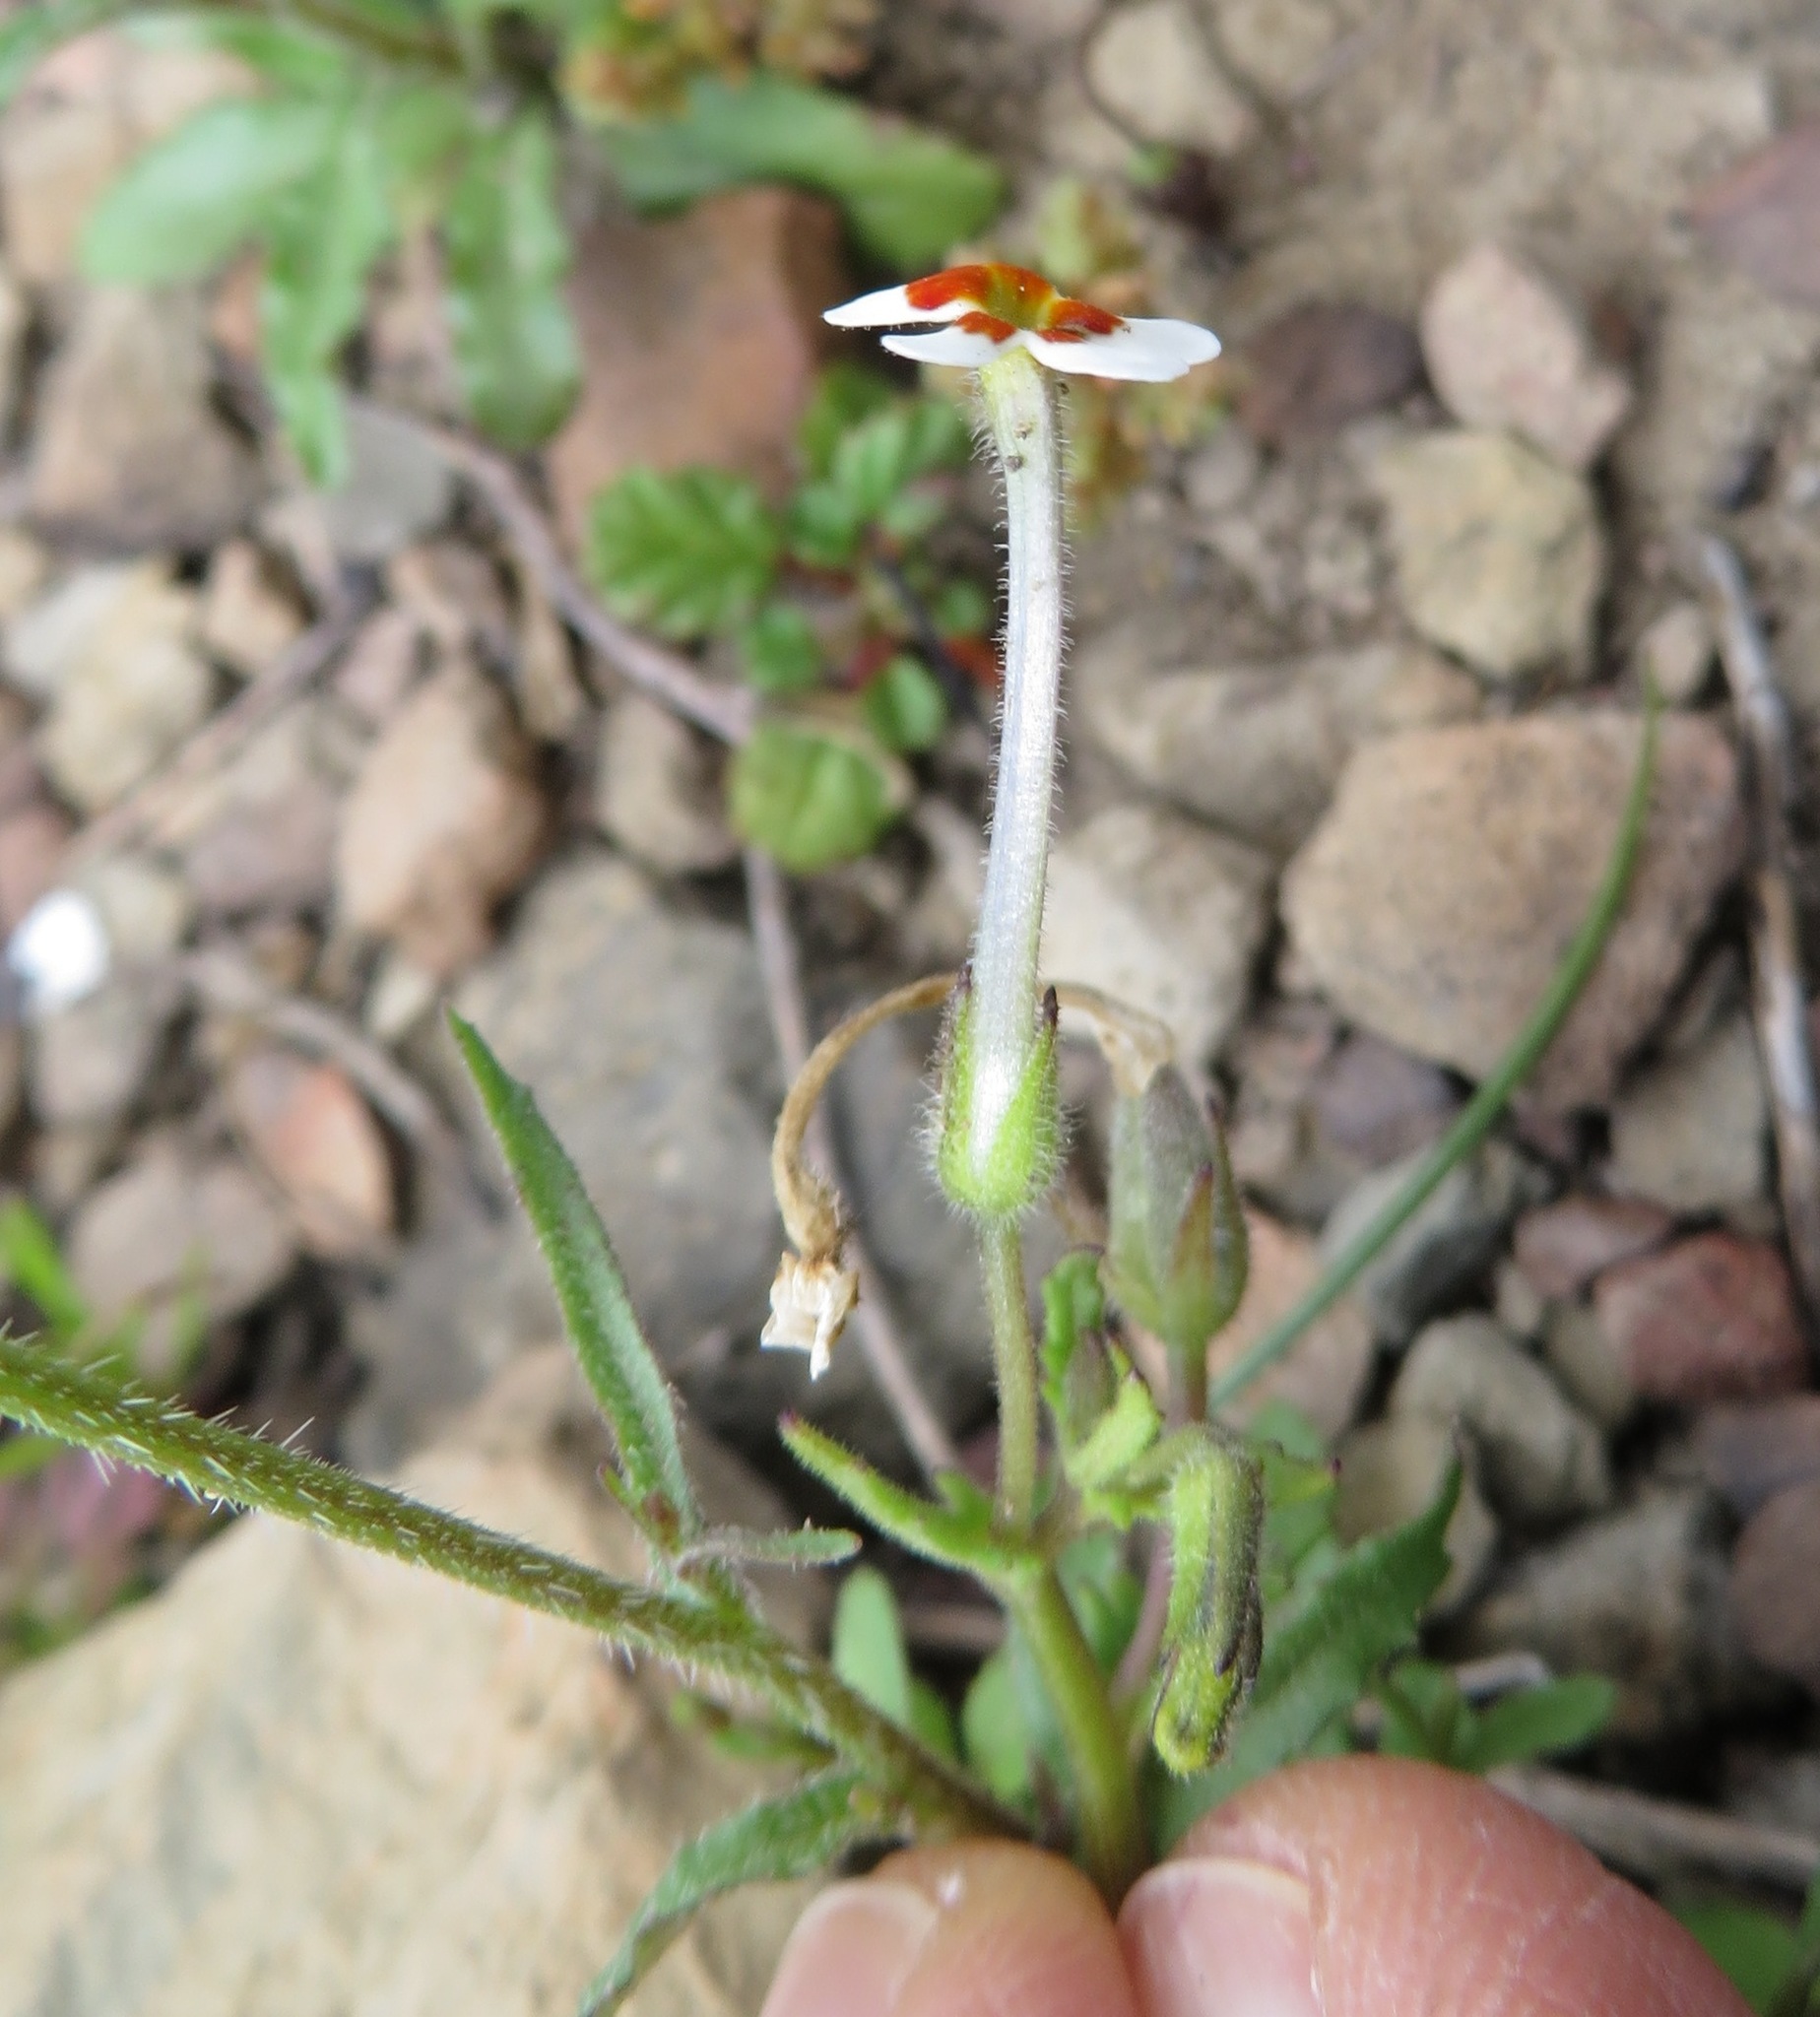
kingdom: Plantae
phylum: Tracheophyta
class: Magnoliopsida
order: Lamiales
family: Scrophulariaceae
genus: Lyperia
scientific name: Lyperia antirrhinoides
